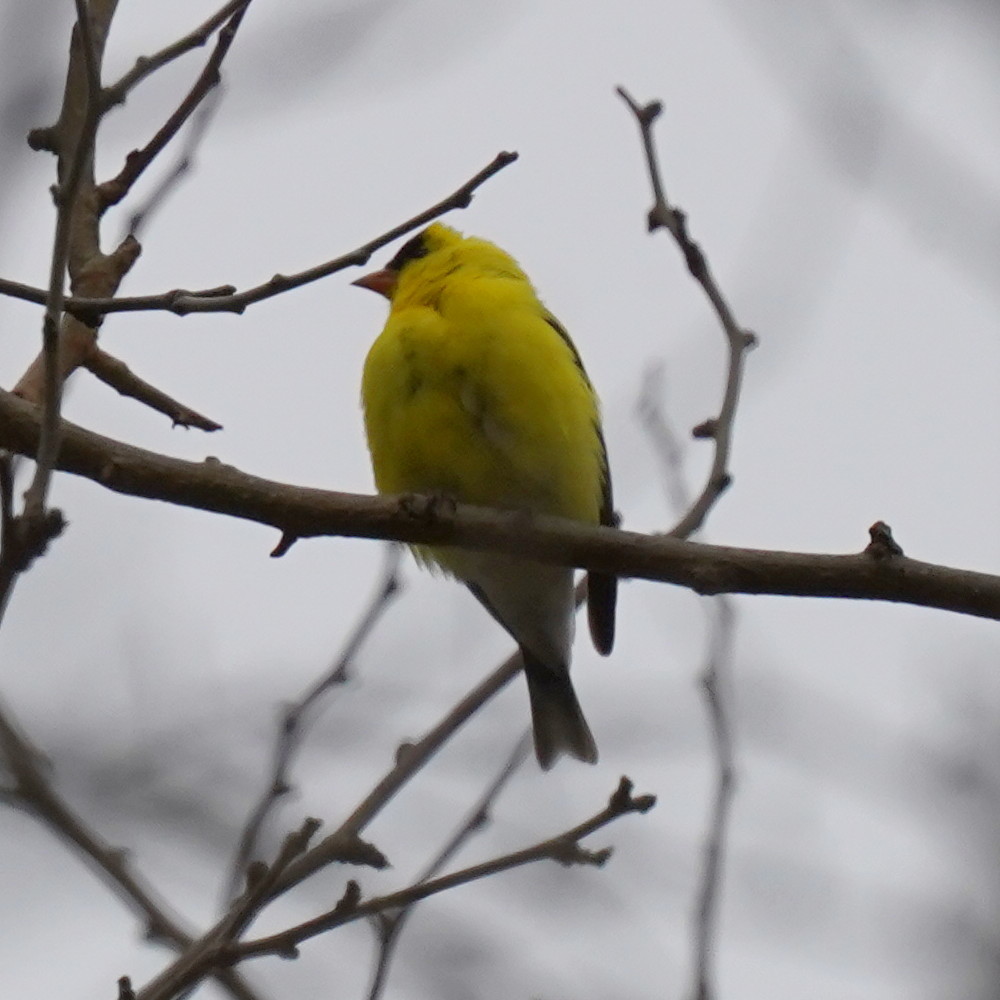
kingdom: Animalia
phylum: Chordata
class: Aves
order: Passeriformes
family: Fringillidae
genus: Spinus
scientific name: Spinus tristis
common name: American goldfinch
